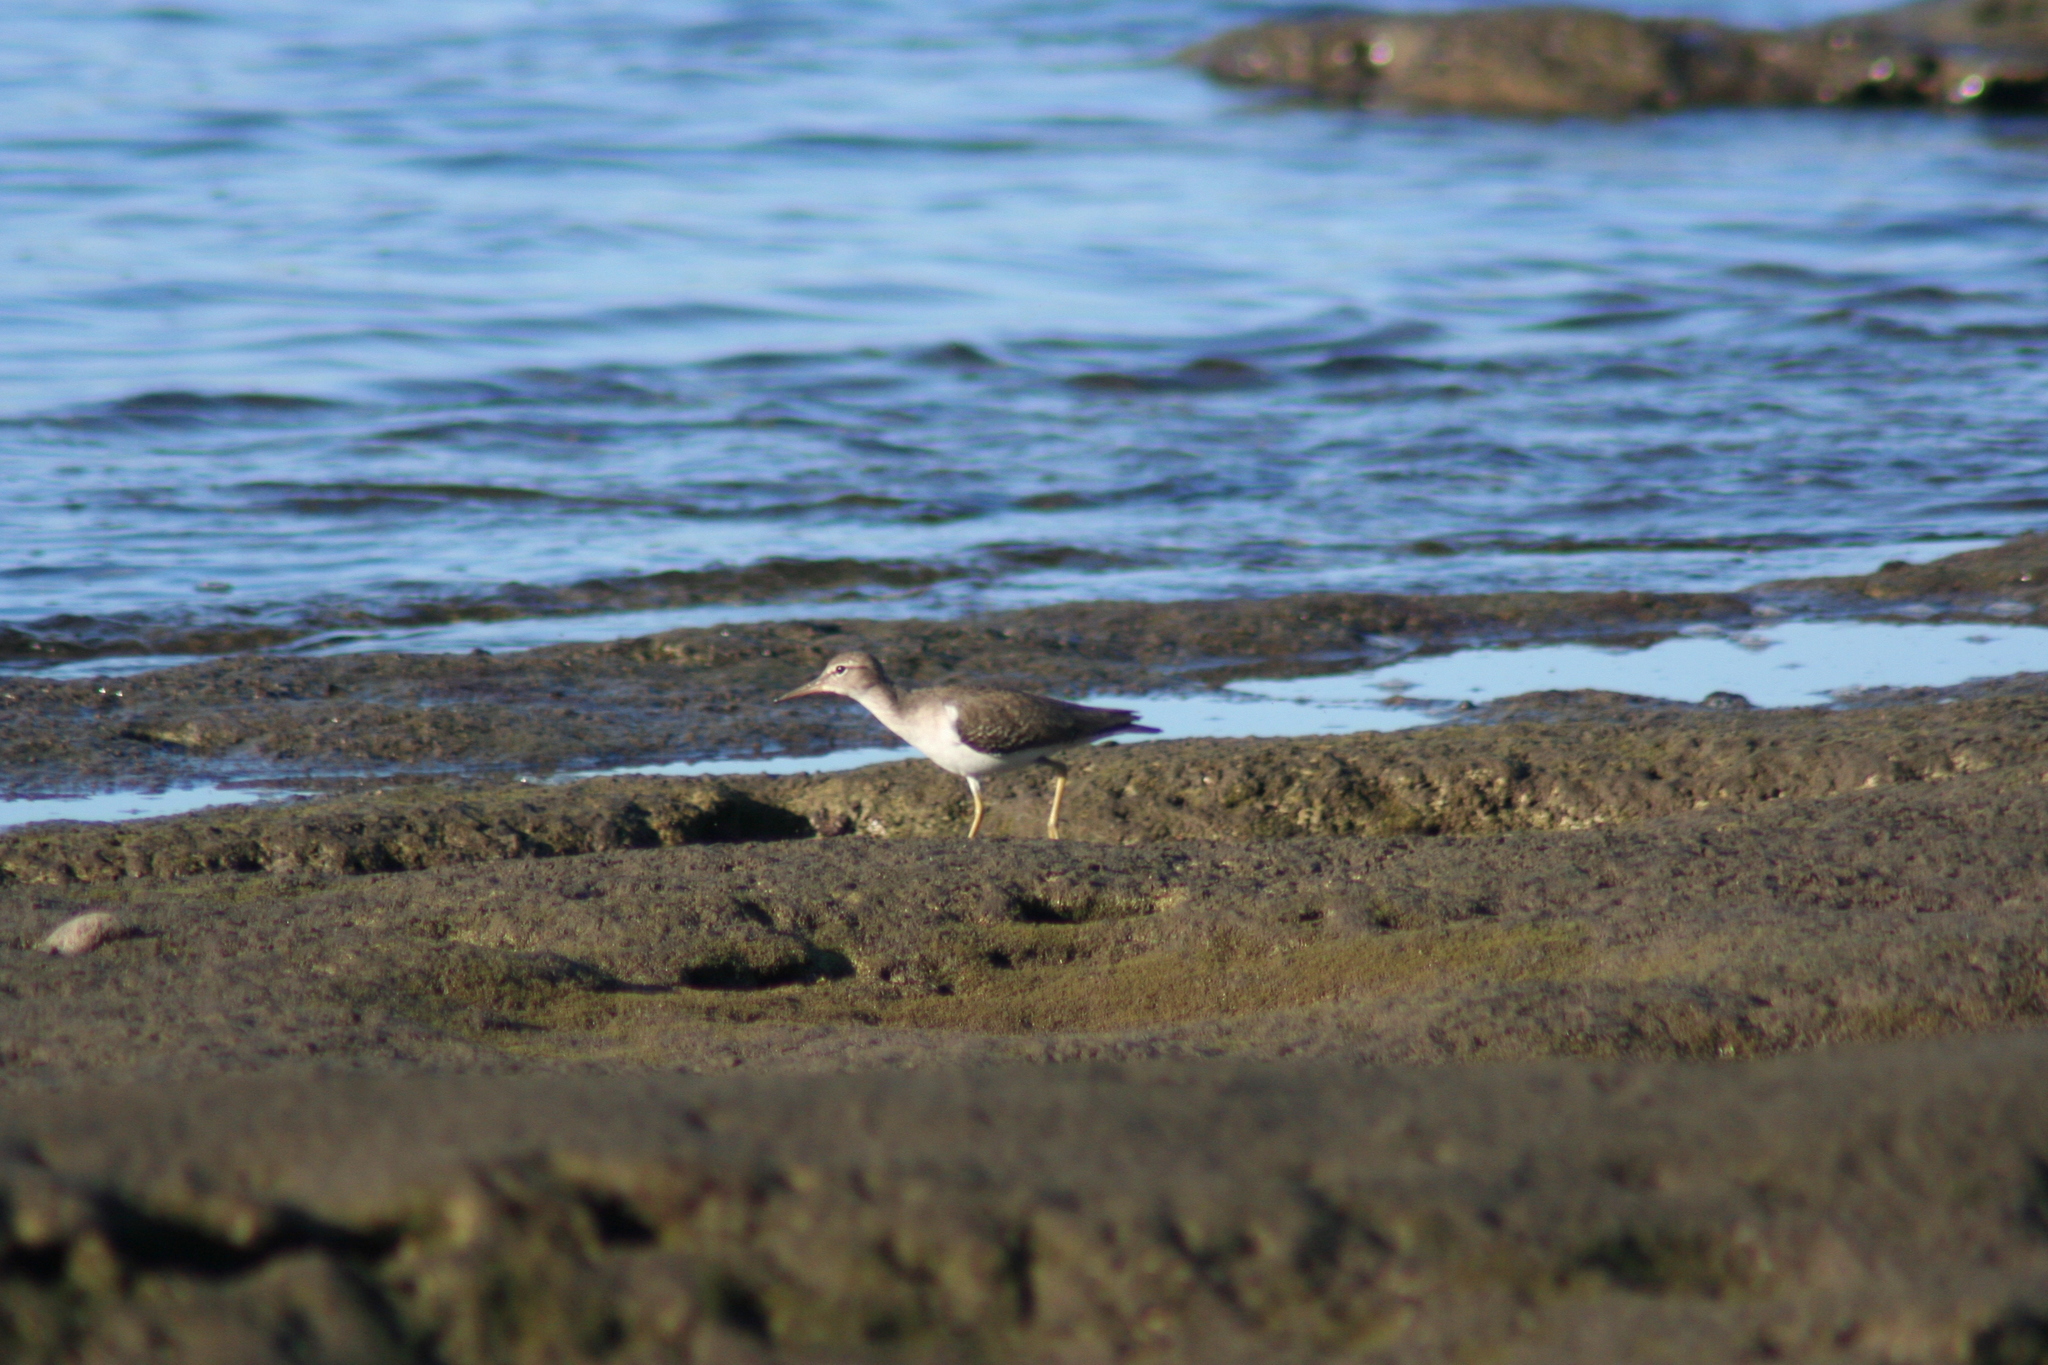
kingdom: Animalia
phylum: Chordata
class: Aves
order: Charadriiformes
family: Scolopacidae
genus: Actitis
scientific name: Actitis macularius
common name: Spotted sandpiper
